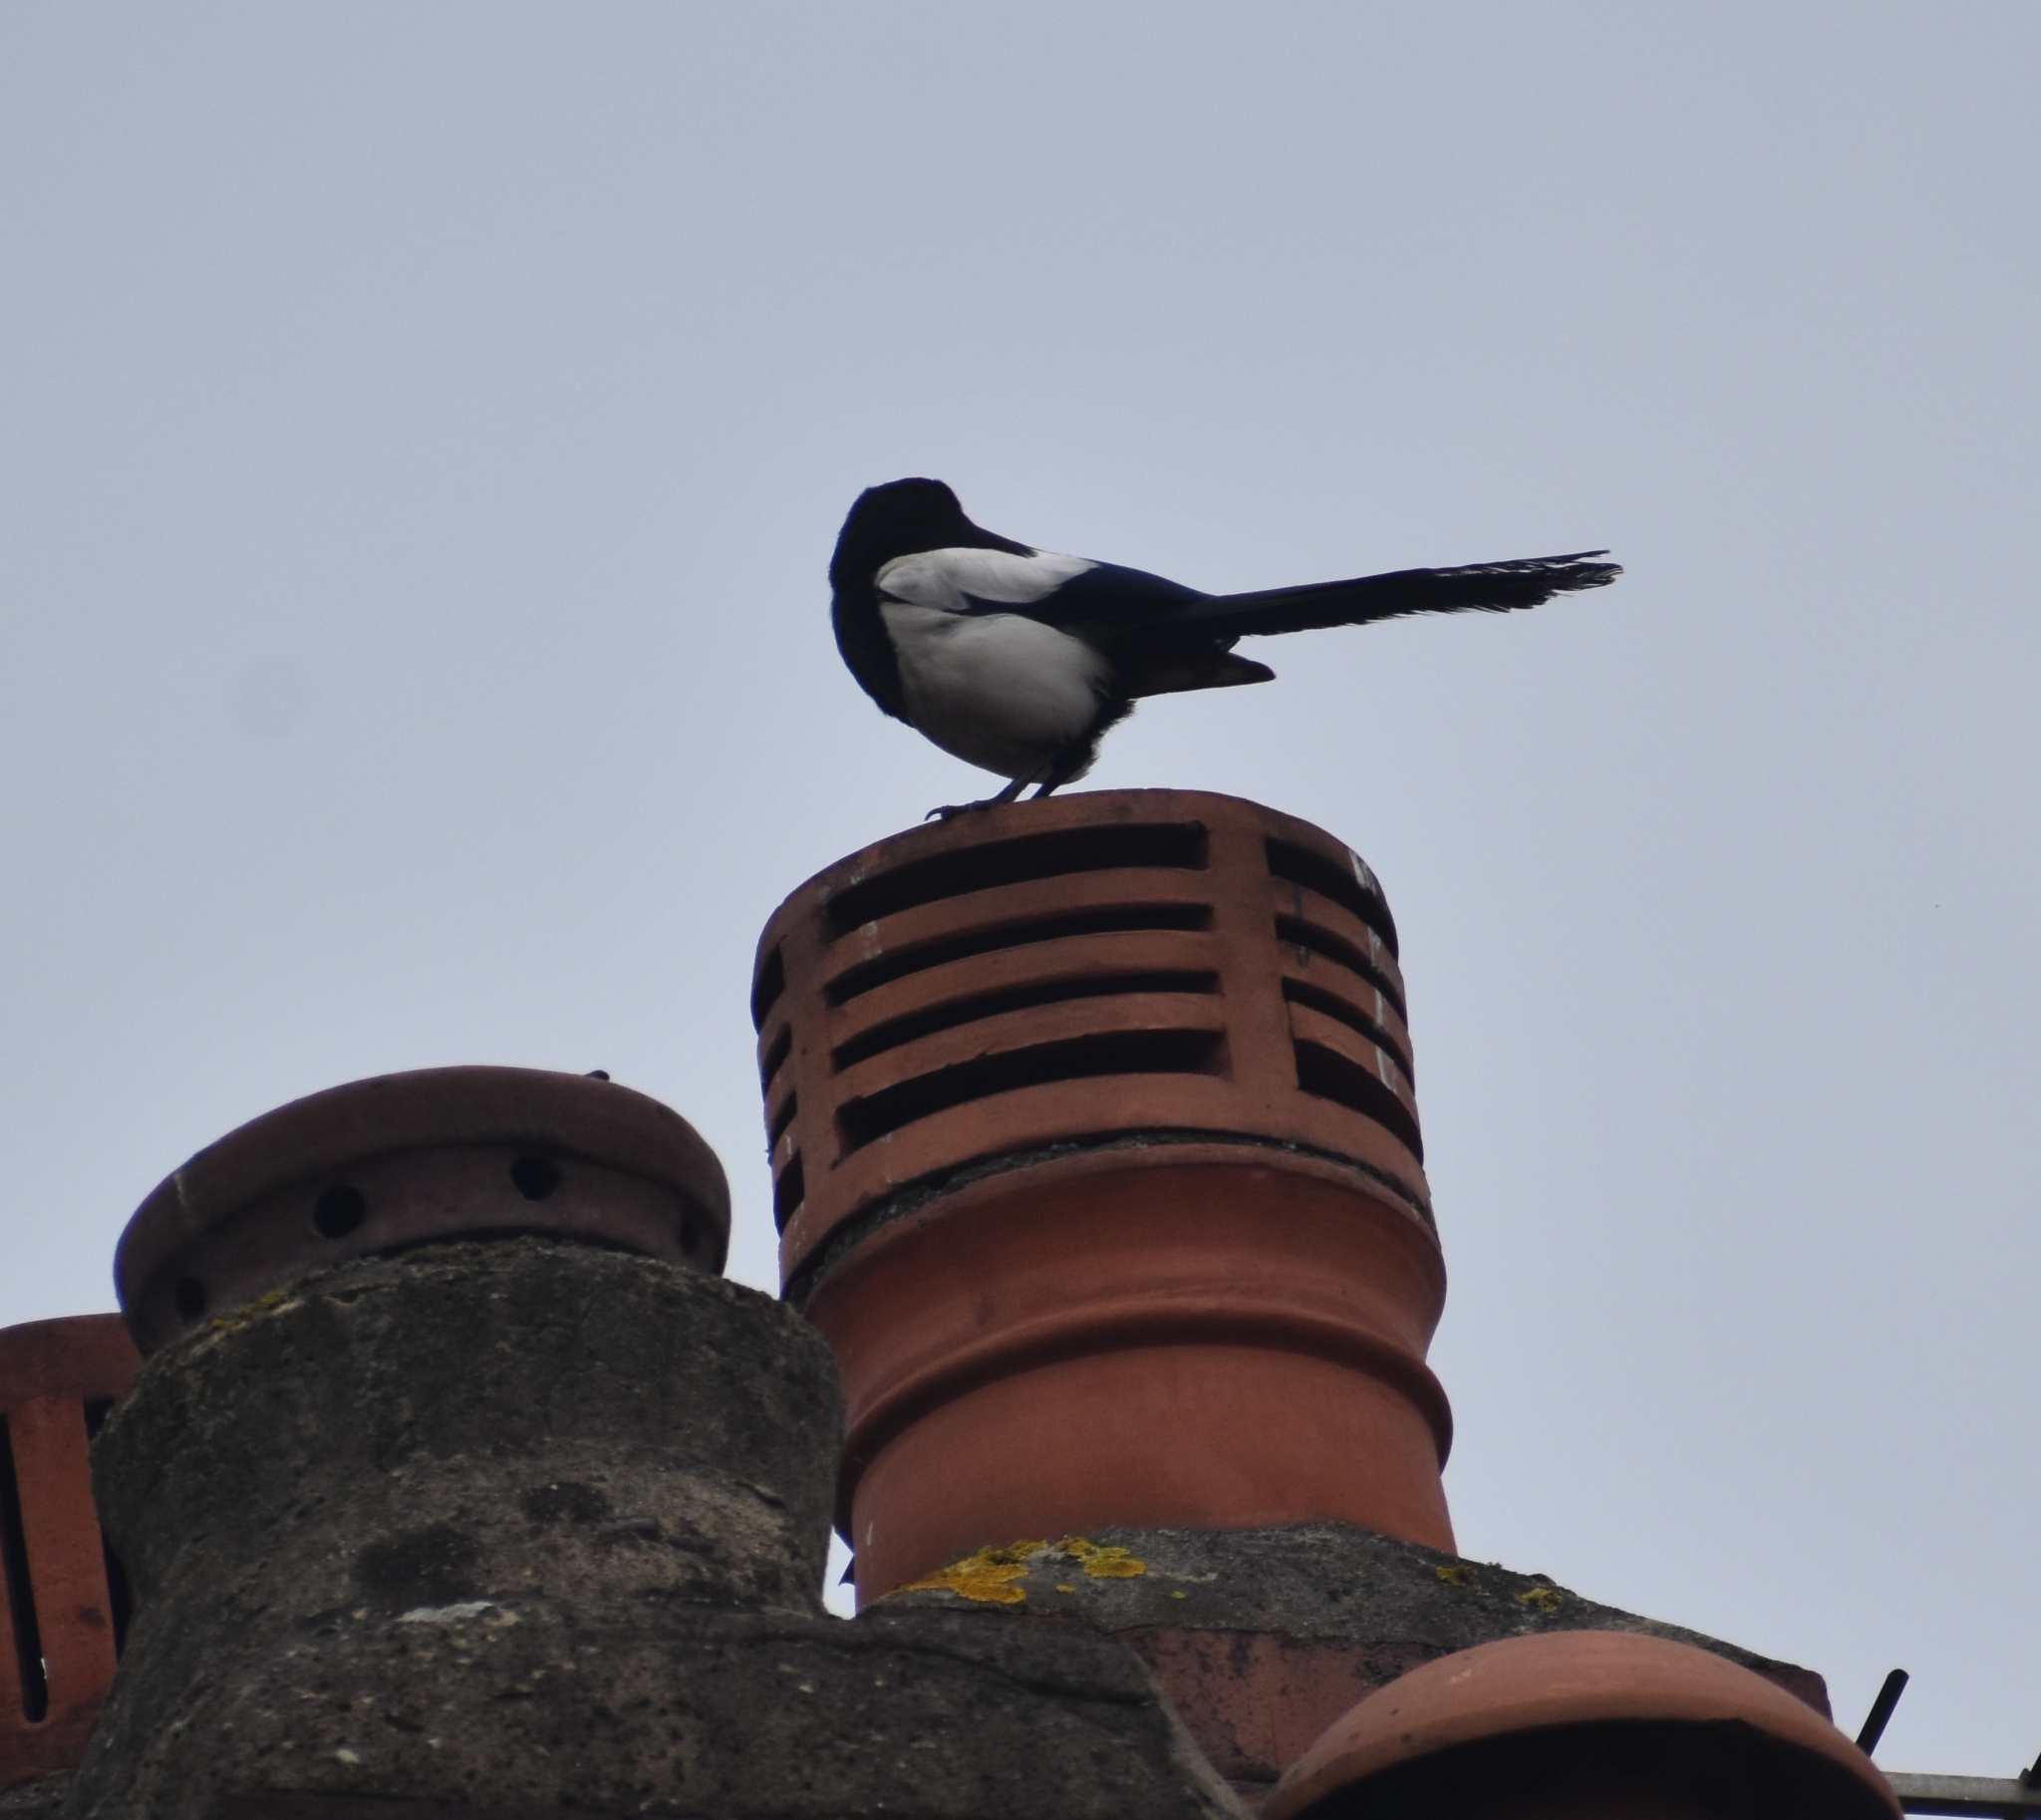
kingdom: Animalia
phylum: Chordata
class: Aves
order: Passeriformes
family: Corvidae
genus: Pica
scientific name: Pica pica
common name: Eurasian magpie
